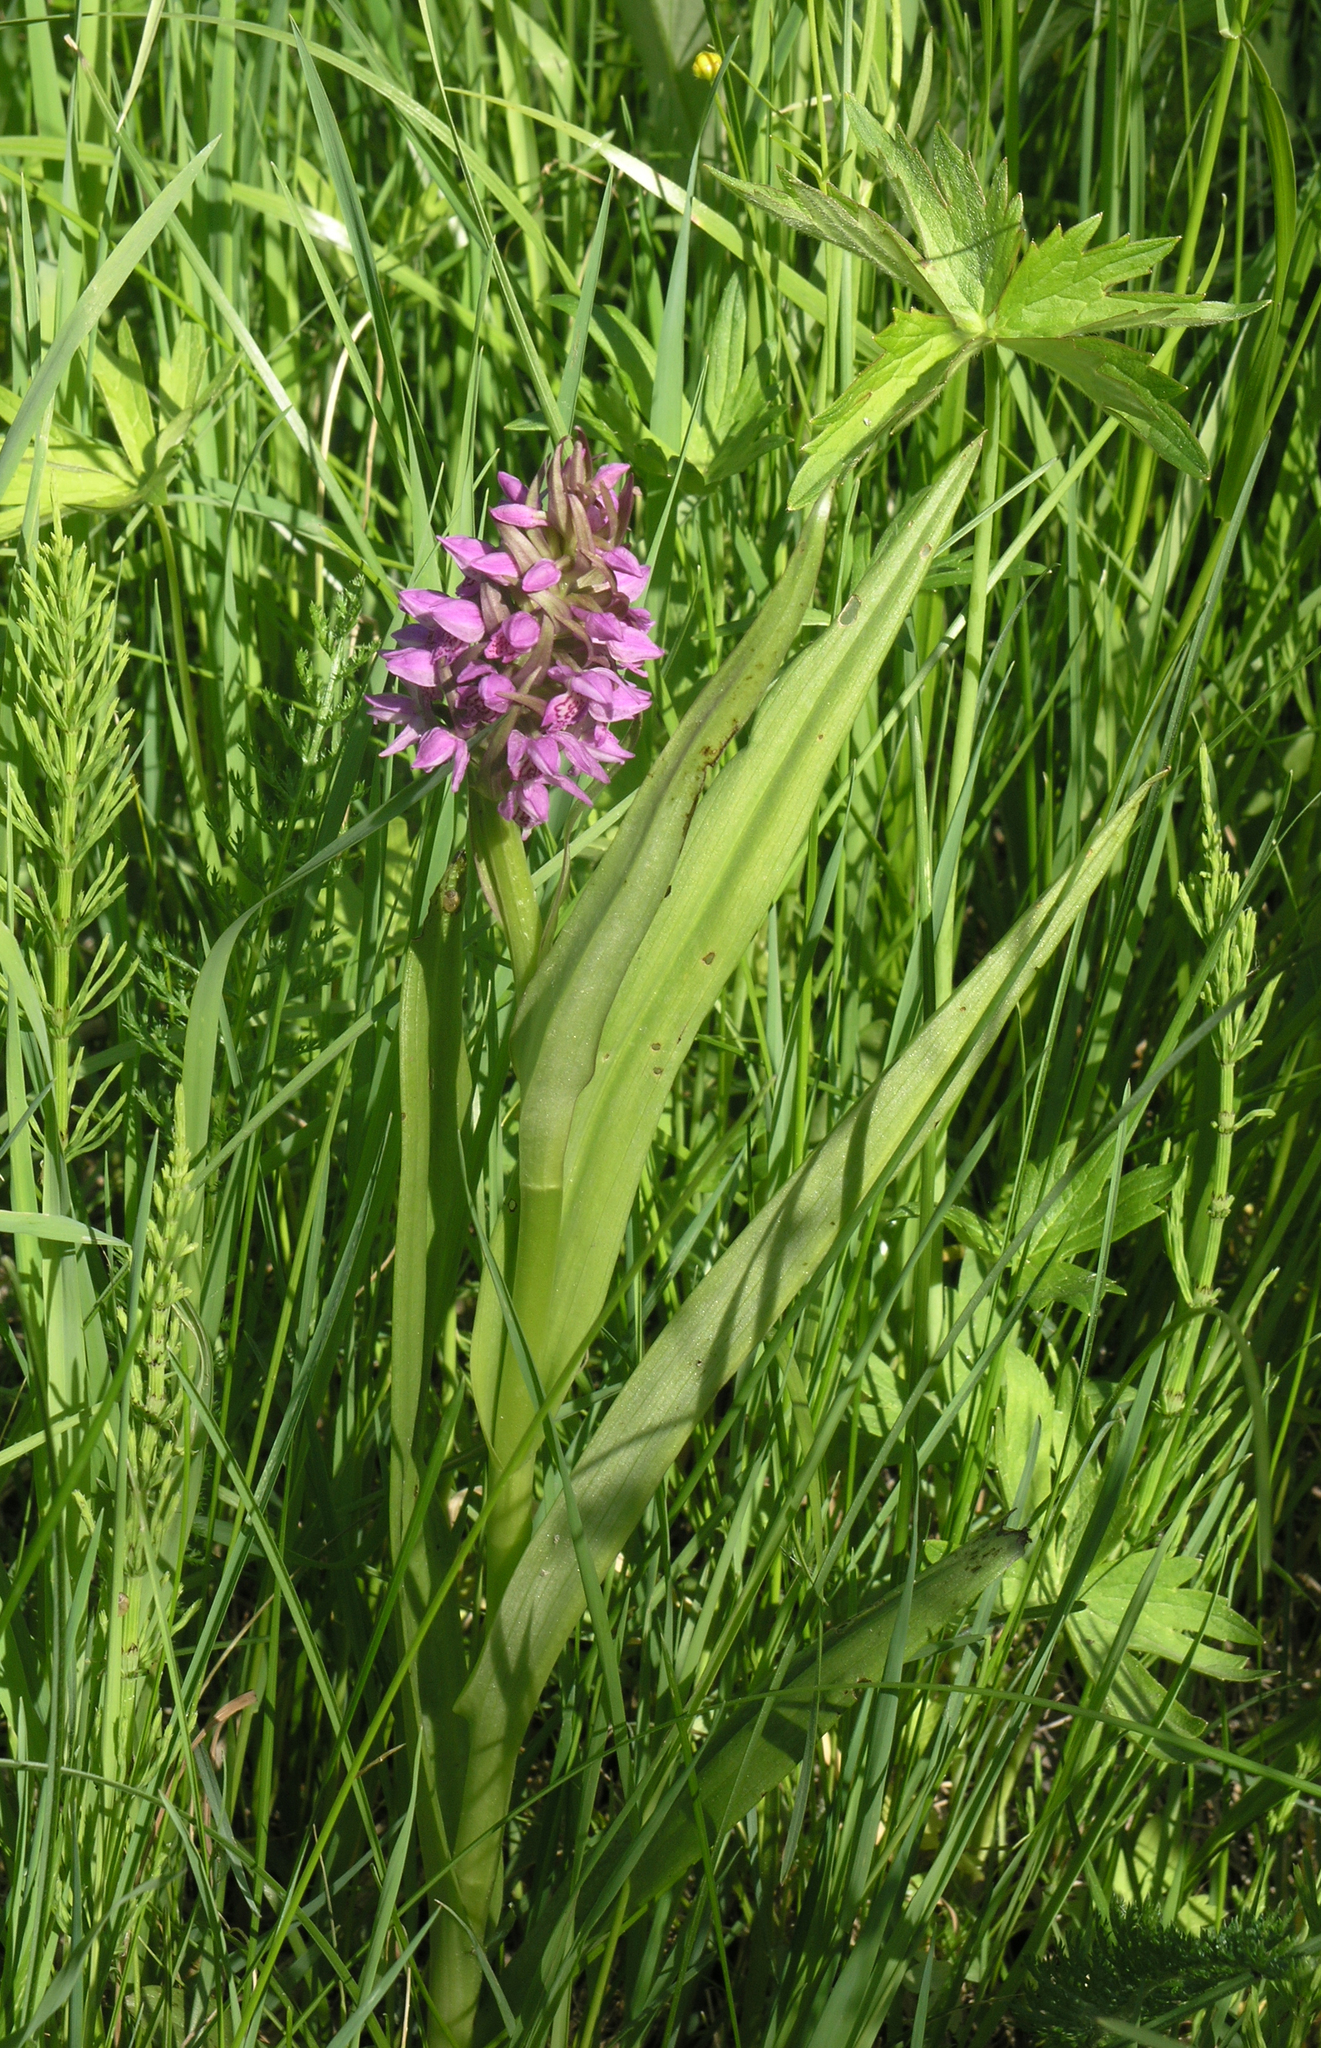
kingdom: Plantae
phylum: Tracheophyta
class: Liliopsida
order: Asparagales
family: Orchidaceae
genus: Dactylorhiza
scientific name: Dactylorhiza incarnata
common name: Early marsh-orchid
